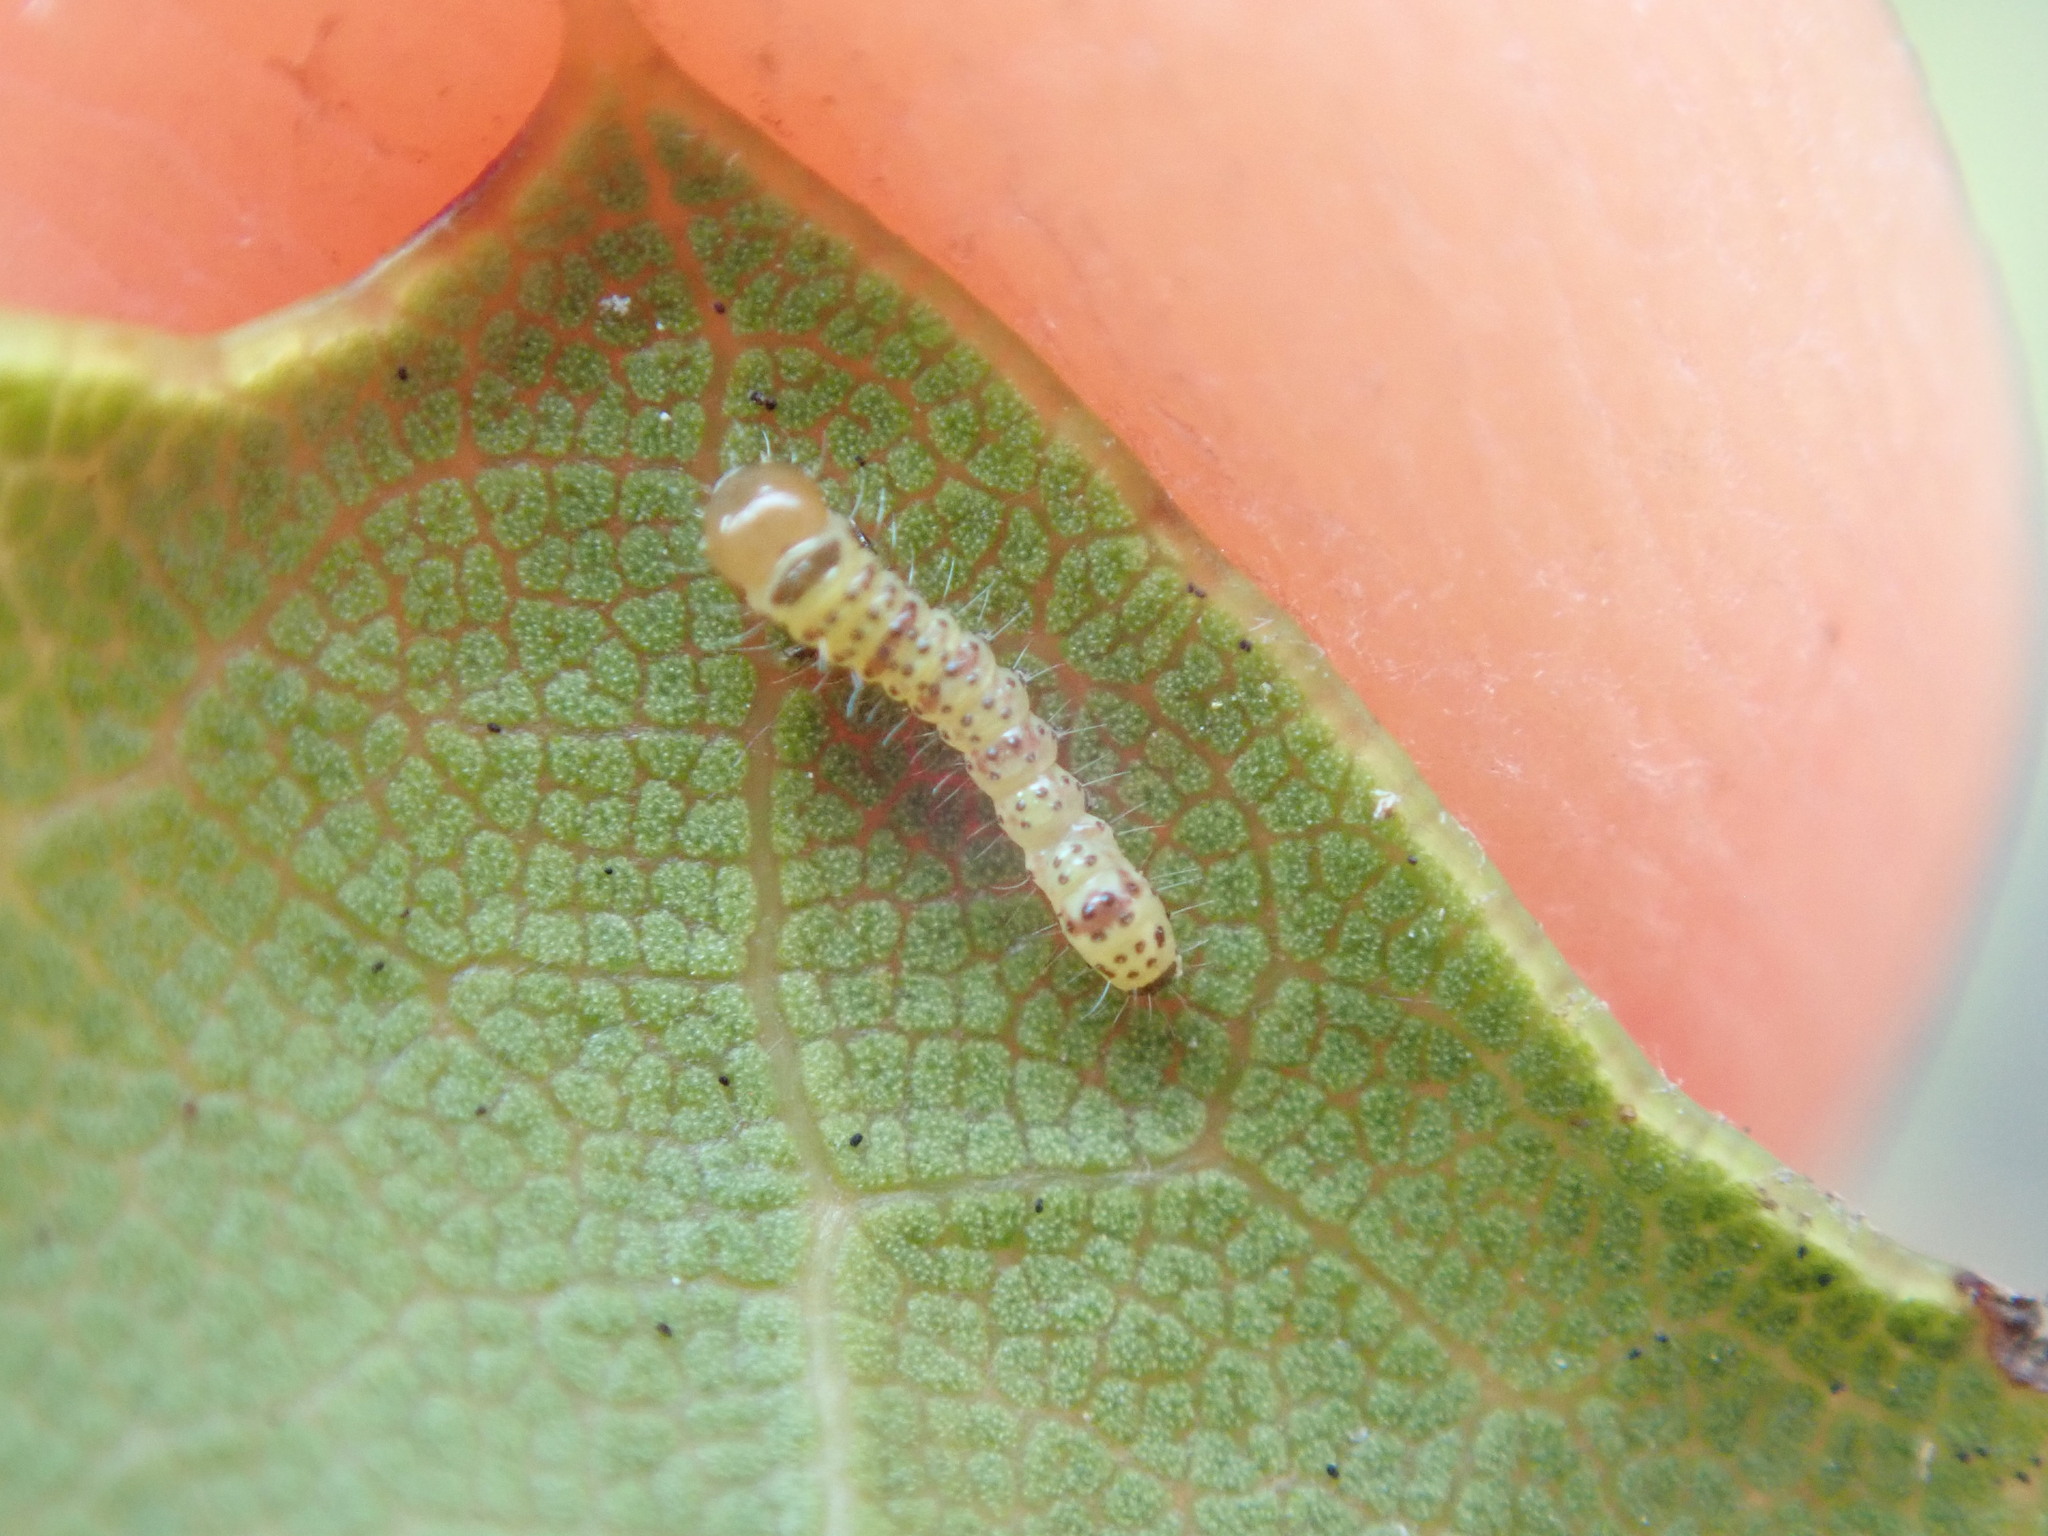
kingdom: Animalia
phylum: Arthropoda
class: Insecta
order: Lepidoptera
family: Notodontidae
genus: Phryganidia
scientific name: Phryganidia californica
